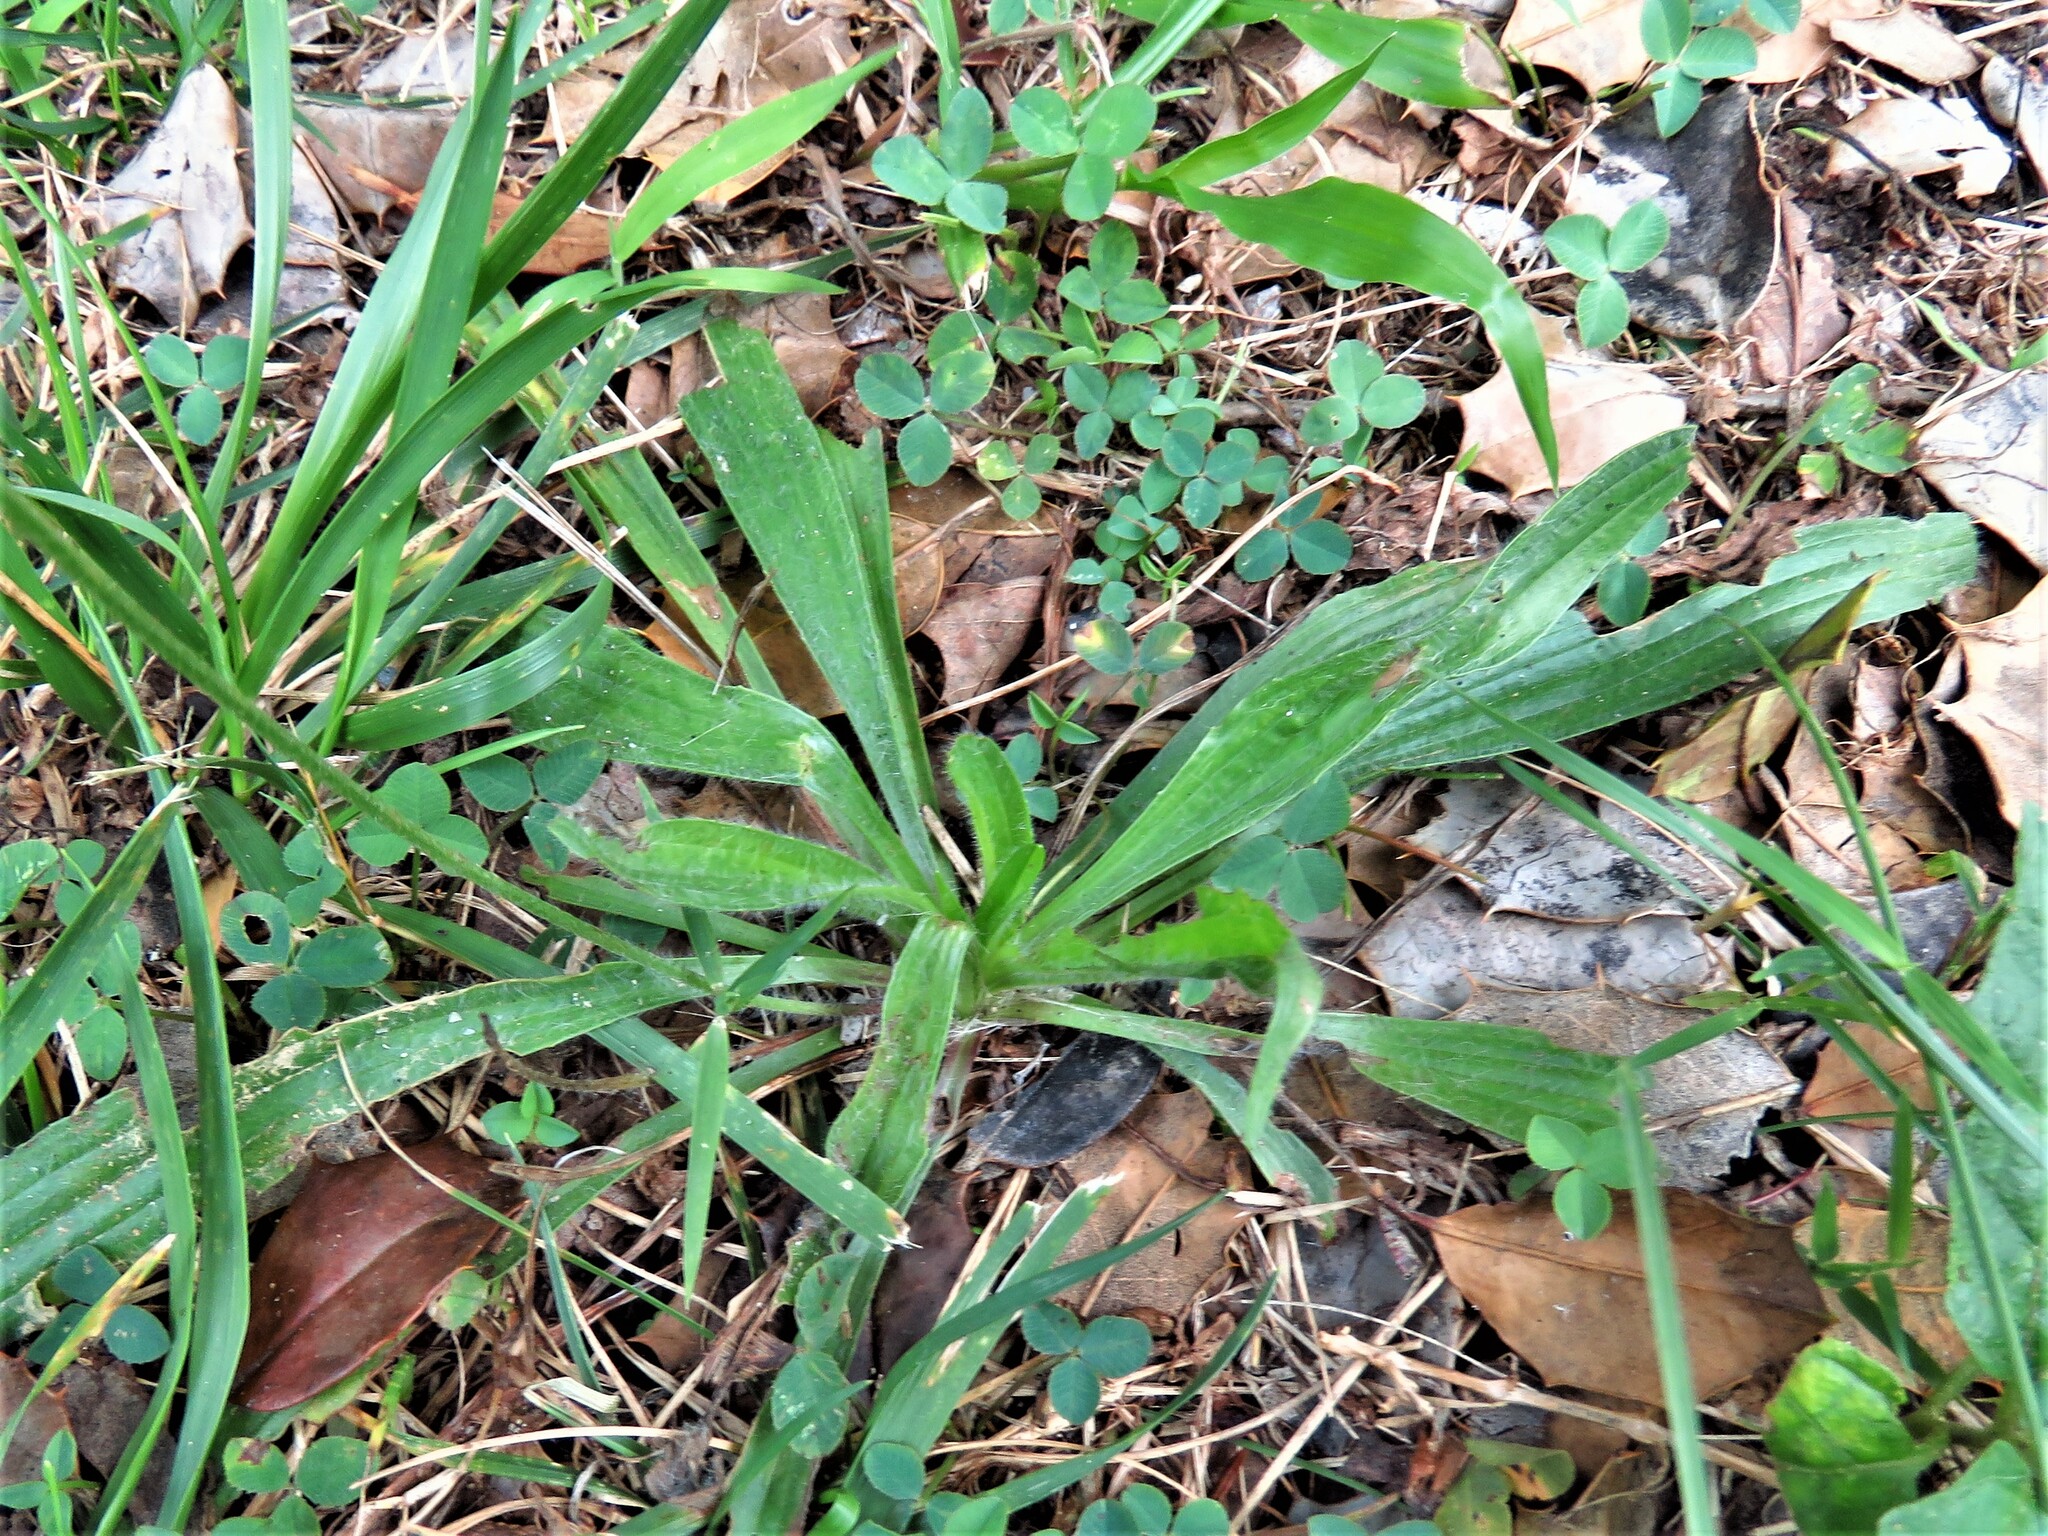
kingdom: Plantae
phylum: Tracheophyta
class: Magnoliopsida
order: Lamiales
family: Plantaginaceae
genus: Plantago
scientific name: Plantago lanceolata
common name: Ribwort plantain
